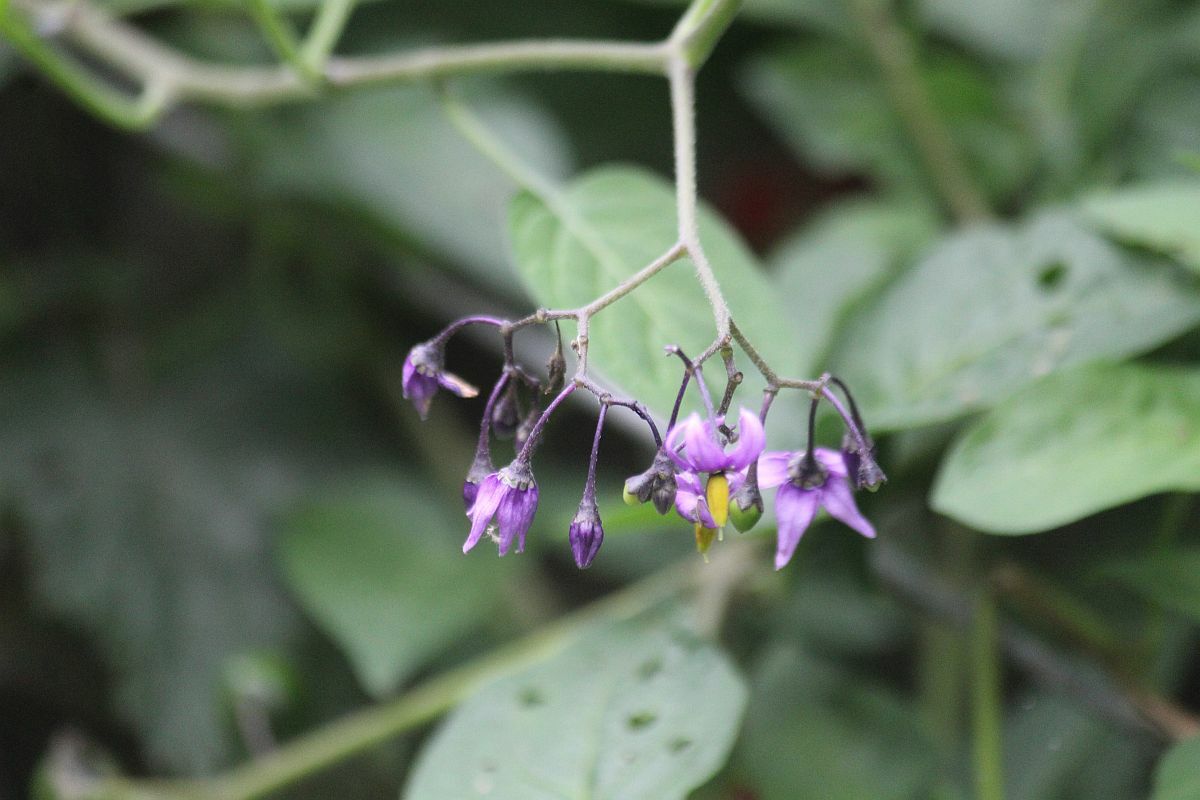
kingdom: Plantae
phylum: Tracheophyta
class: Magnoliopsida
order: Solanales
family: Solanaceae
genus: Solanum
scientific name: Solanum dulcamara
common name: Climbing nightshade
